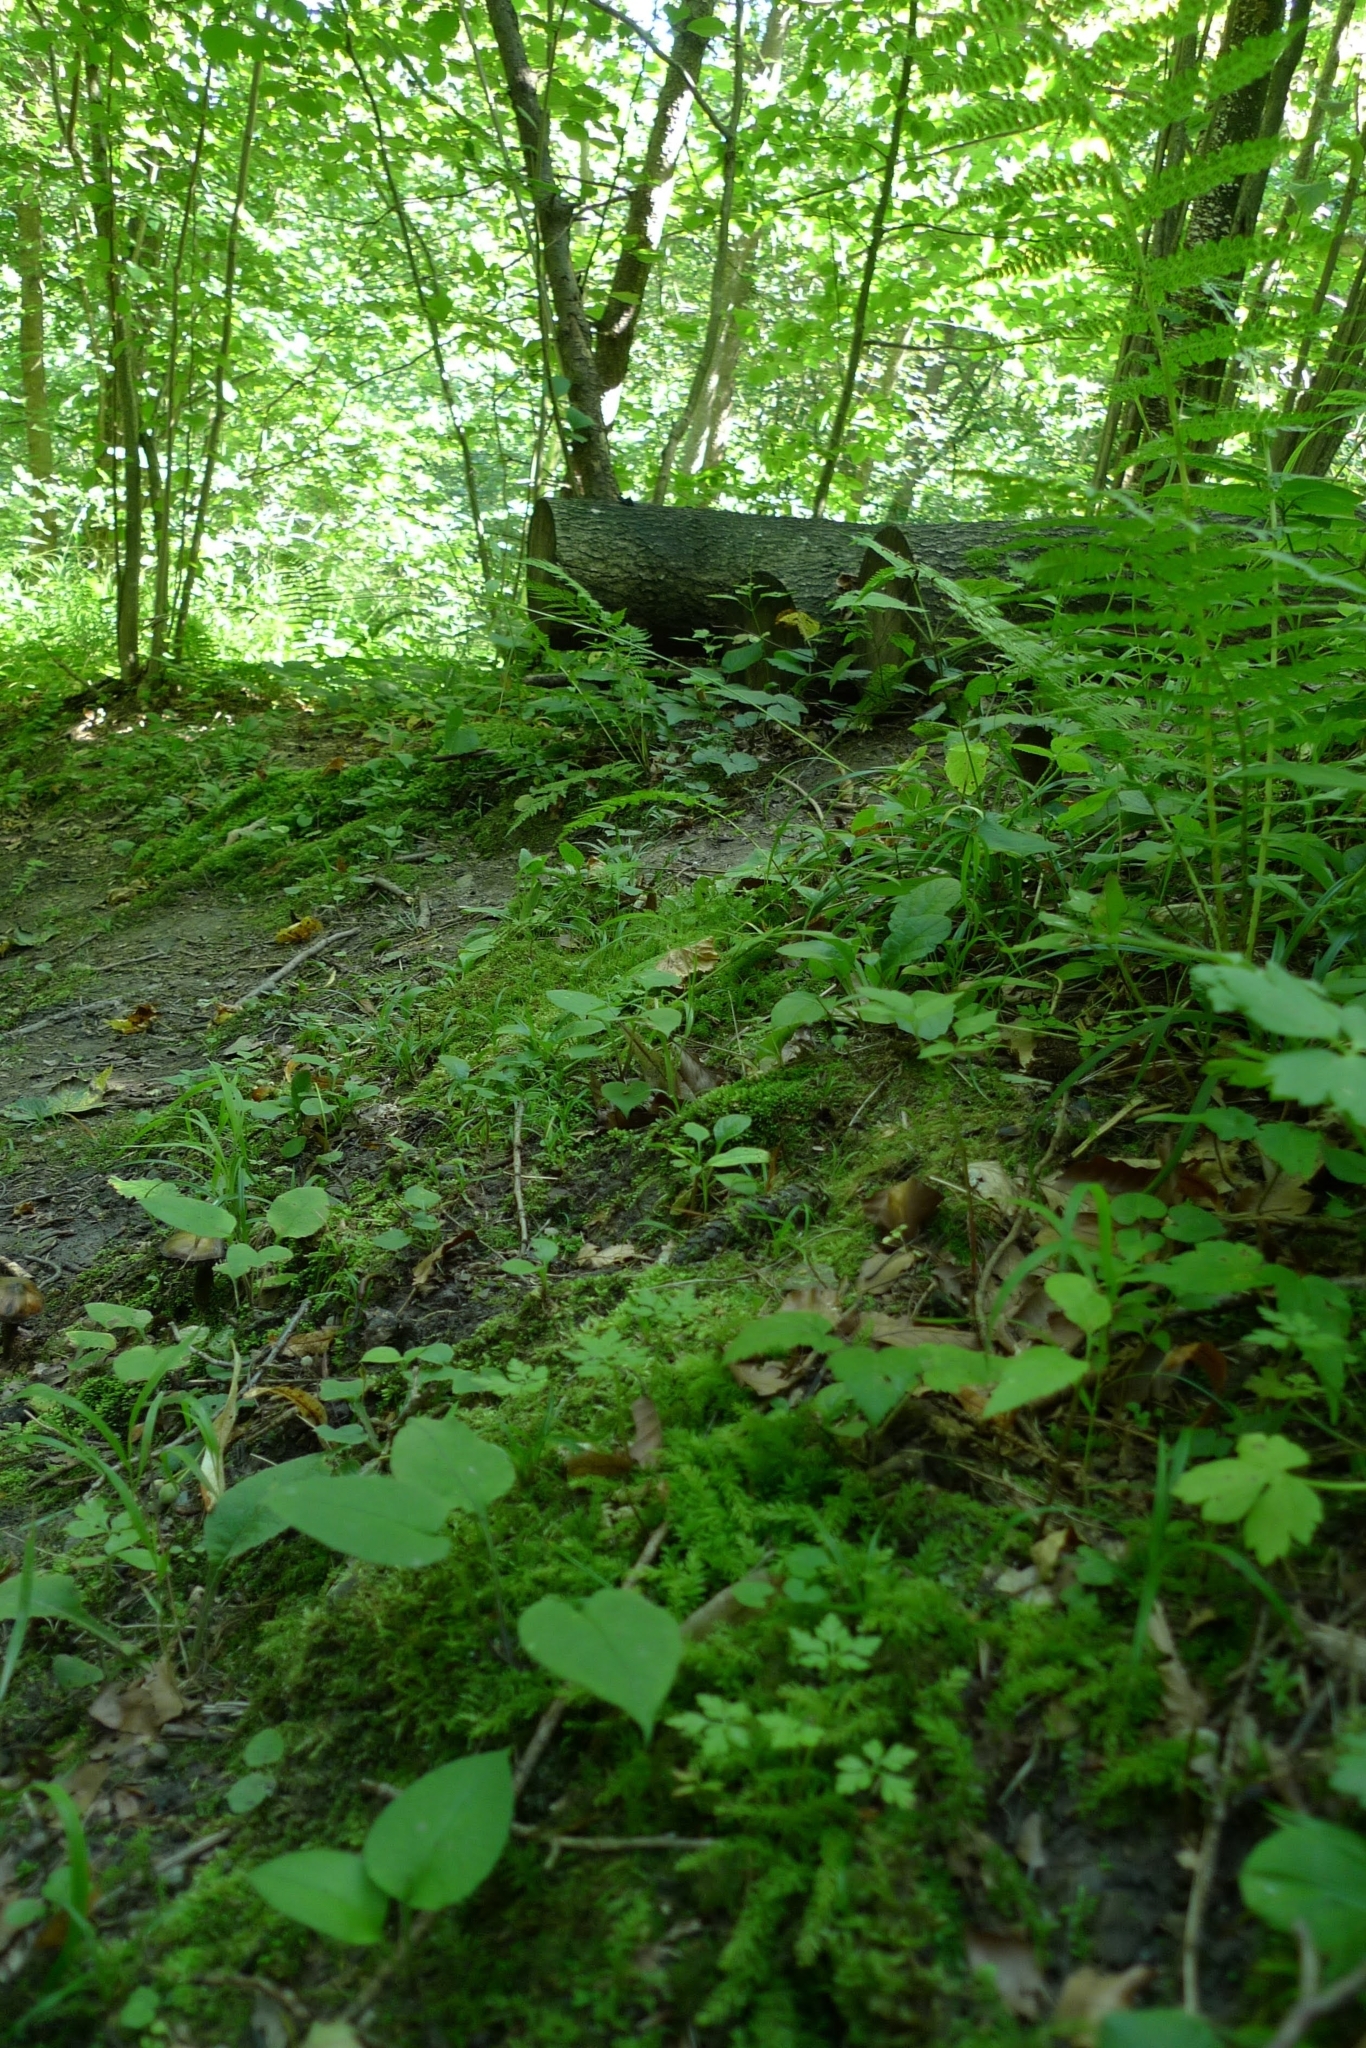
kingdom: Plantae
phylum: Bryophyta
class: Bryopsida
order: Bryales
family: Mniaceae
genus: Plagiomnium
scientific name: Plagiomnium undulatum
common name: Hart's-tongue thyme-moss
